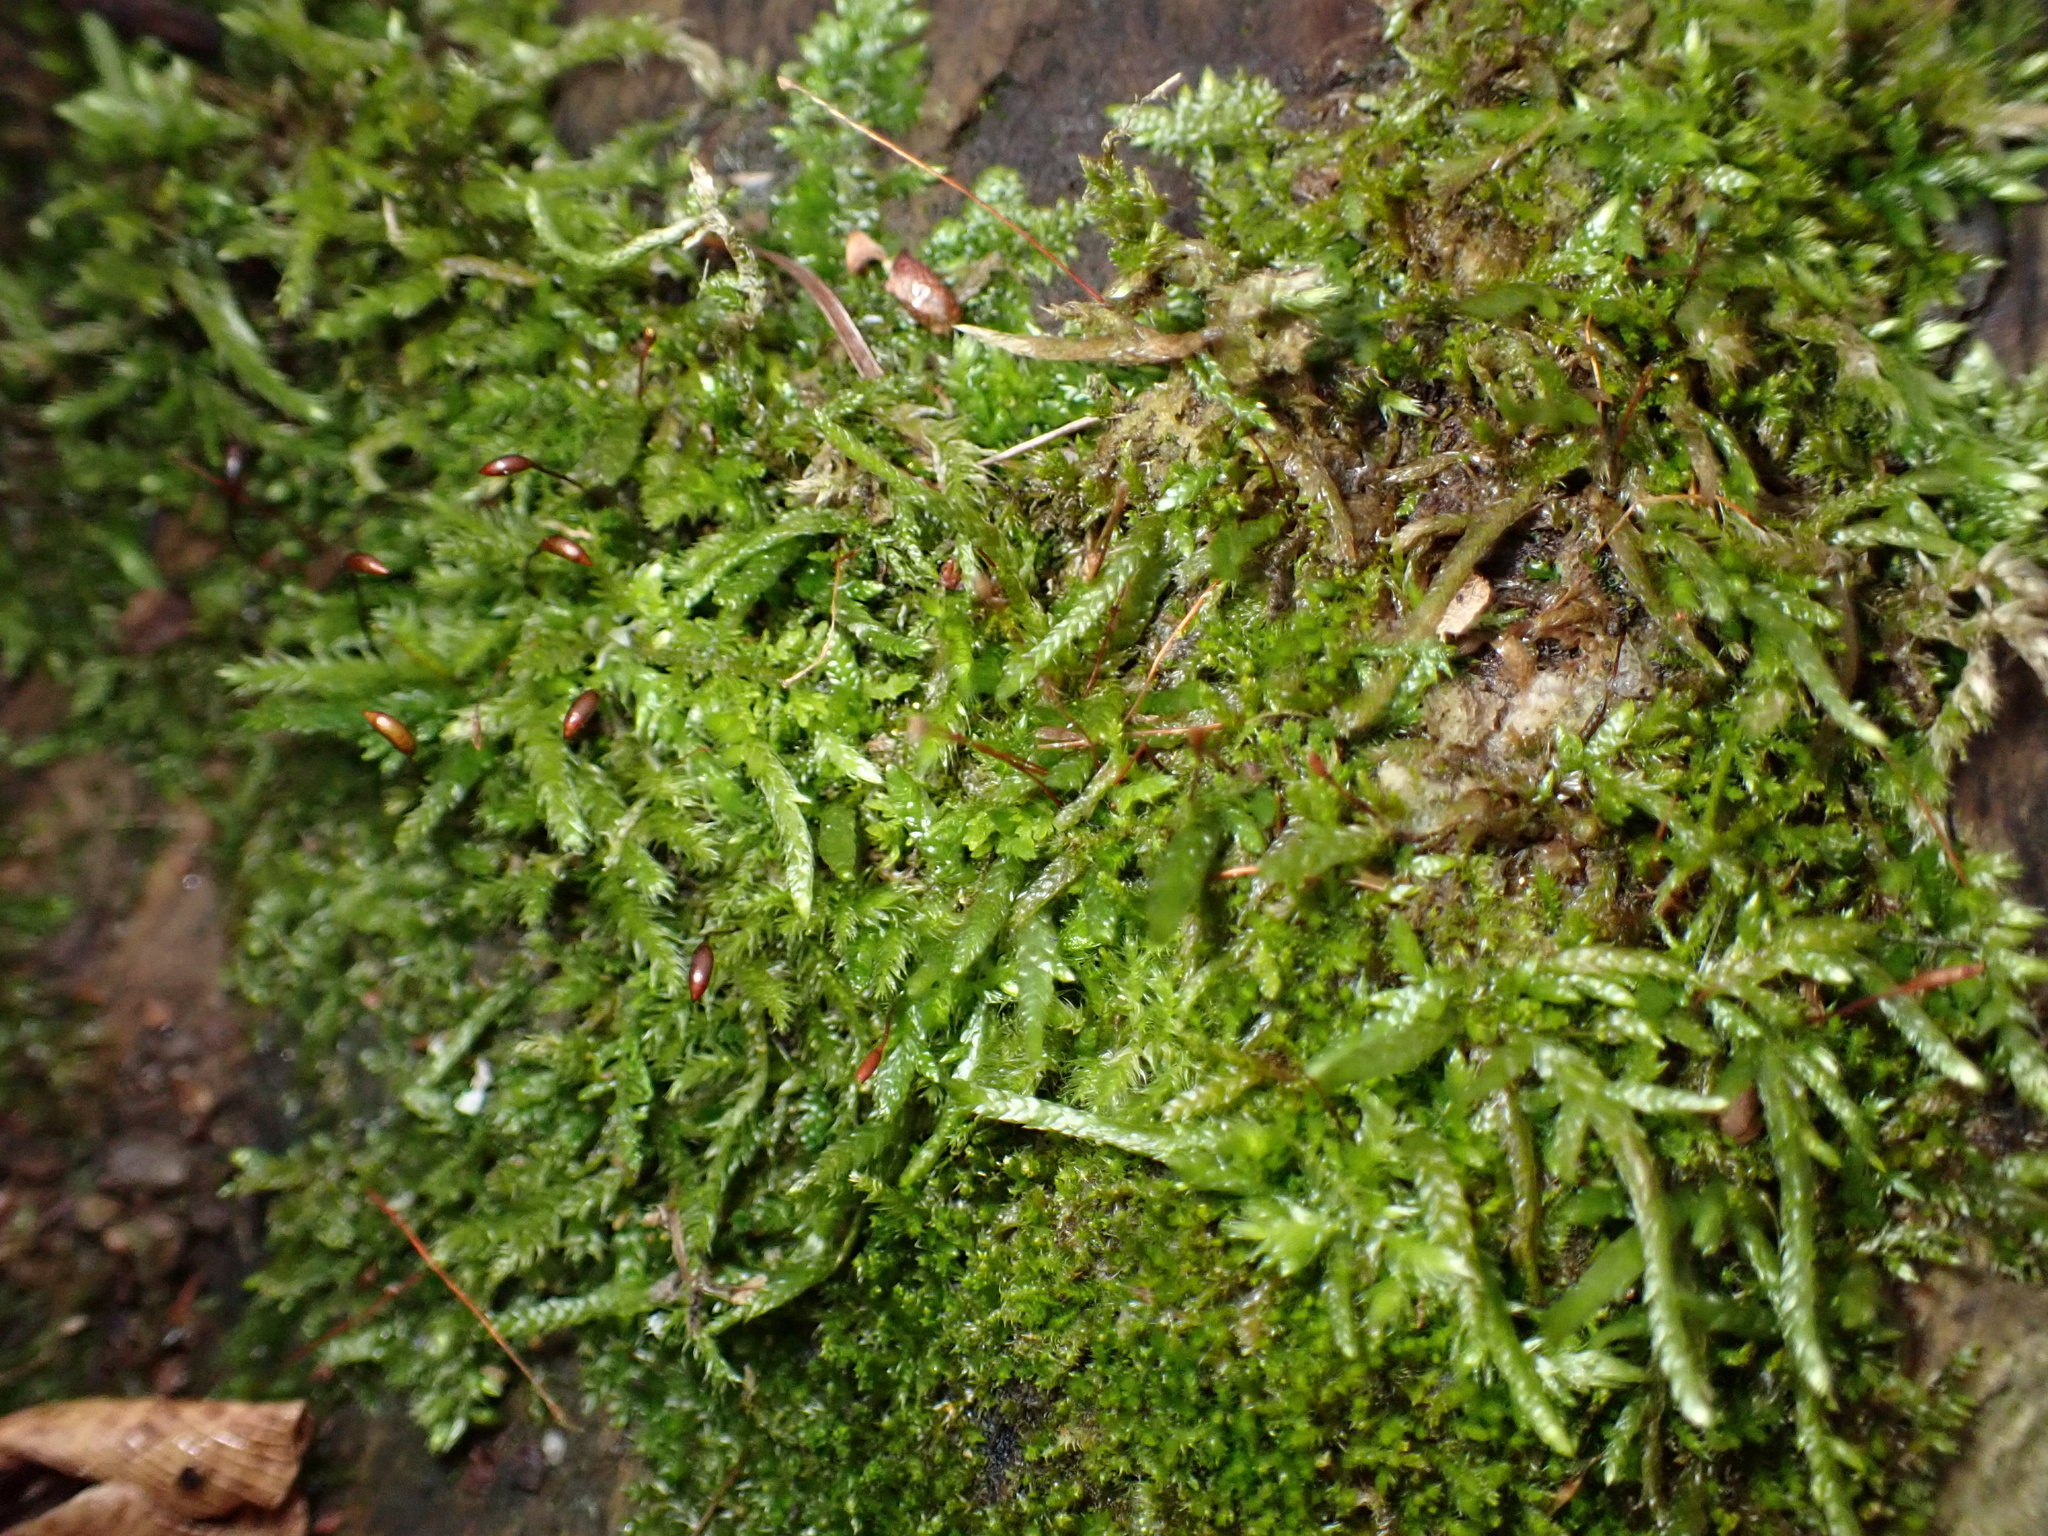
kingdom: Plantae
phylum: Bryophyta
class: Bryopsida
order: Hypnales
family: Brachytheciaceae
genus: Brachythecium
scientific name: Brachythecium rutabulum
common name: Rough-stalked feather-moss
